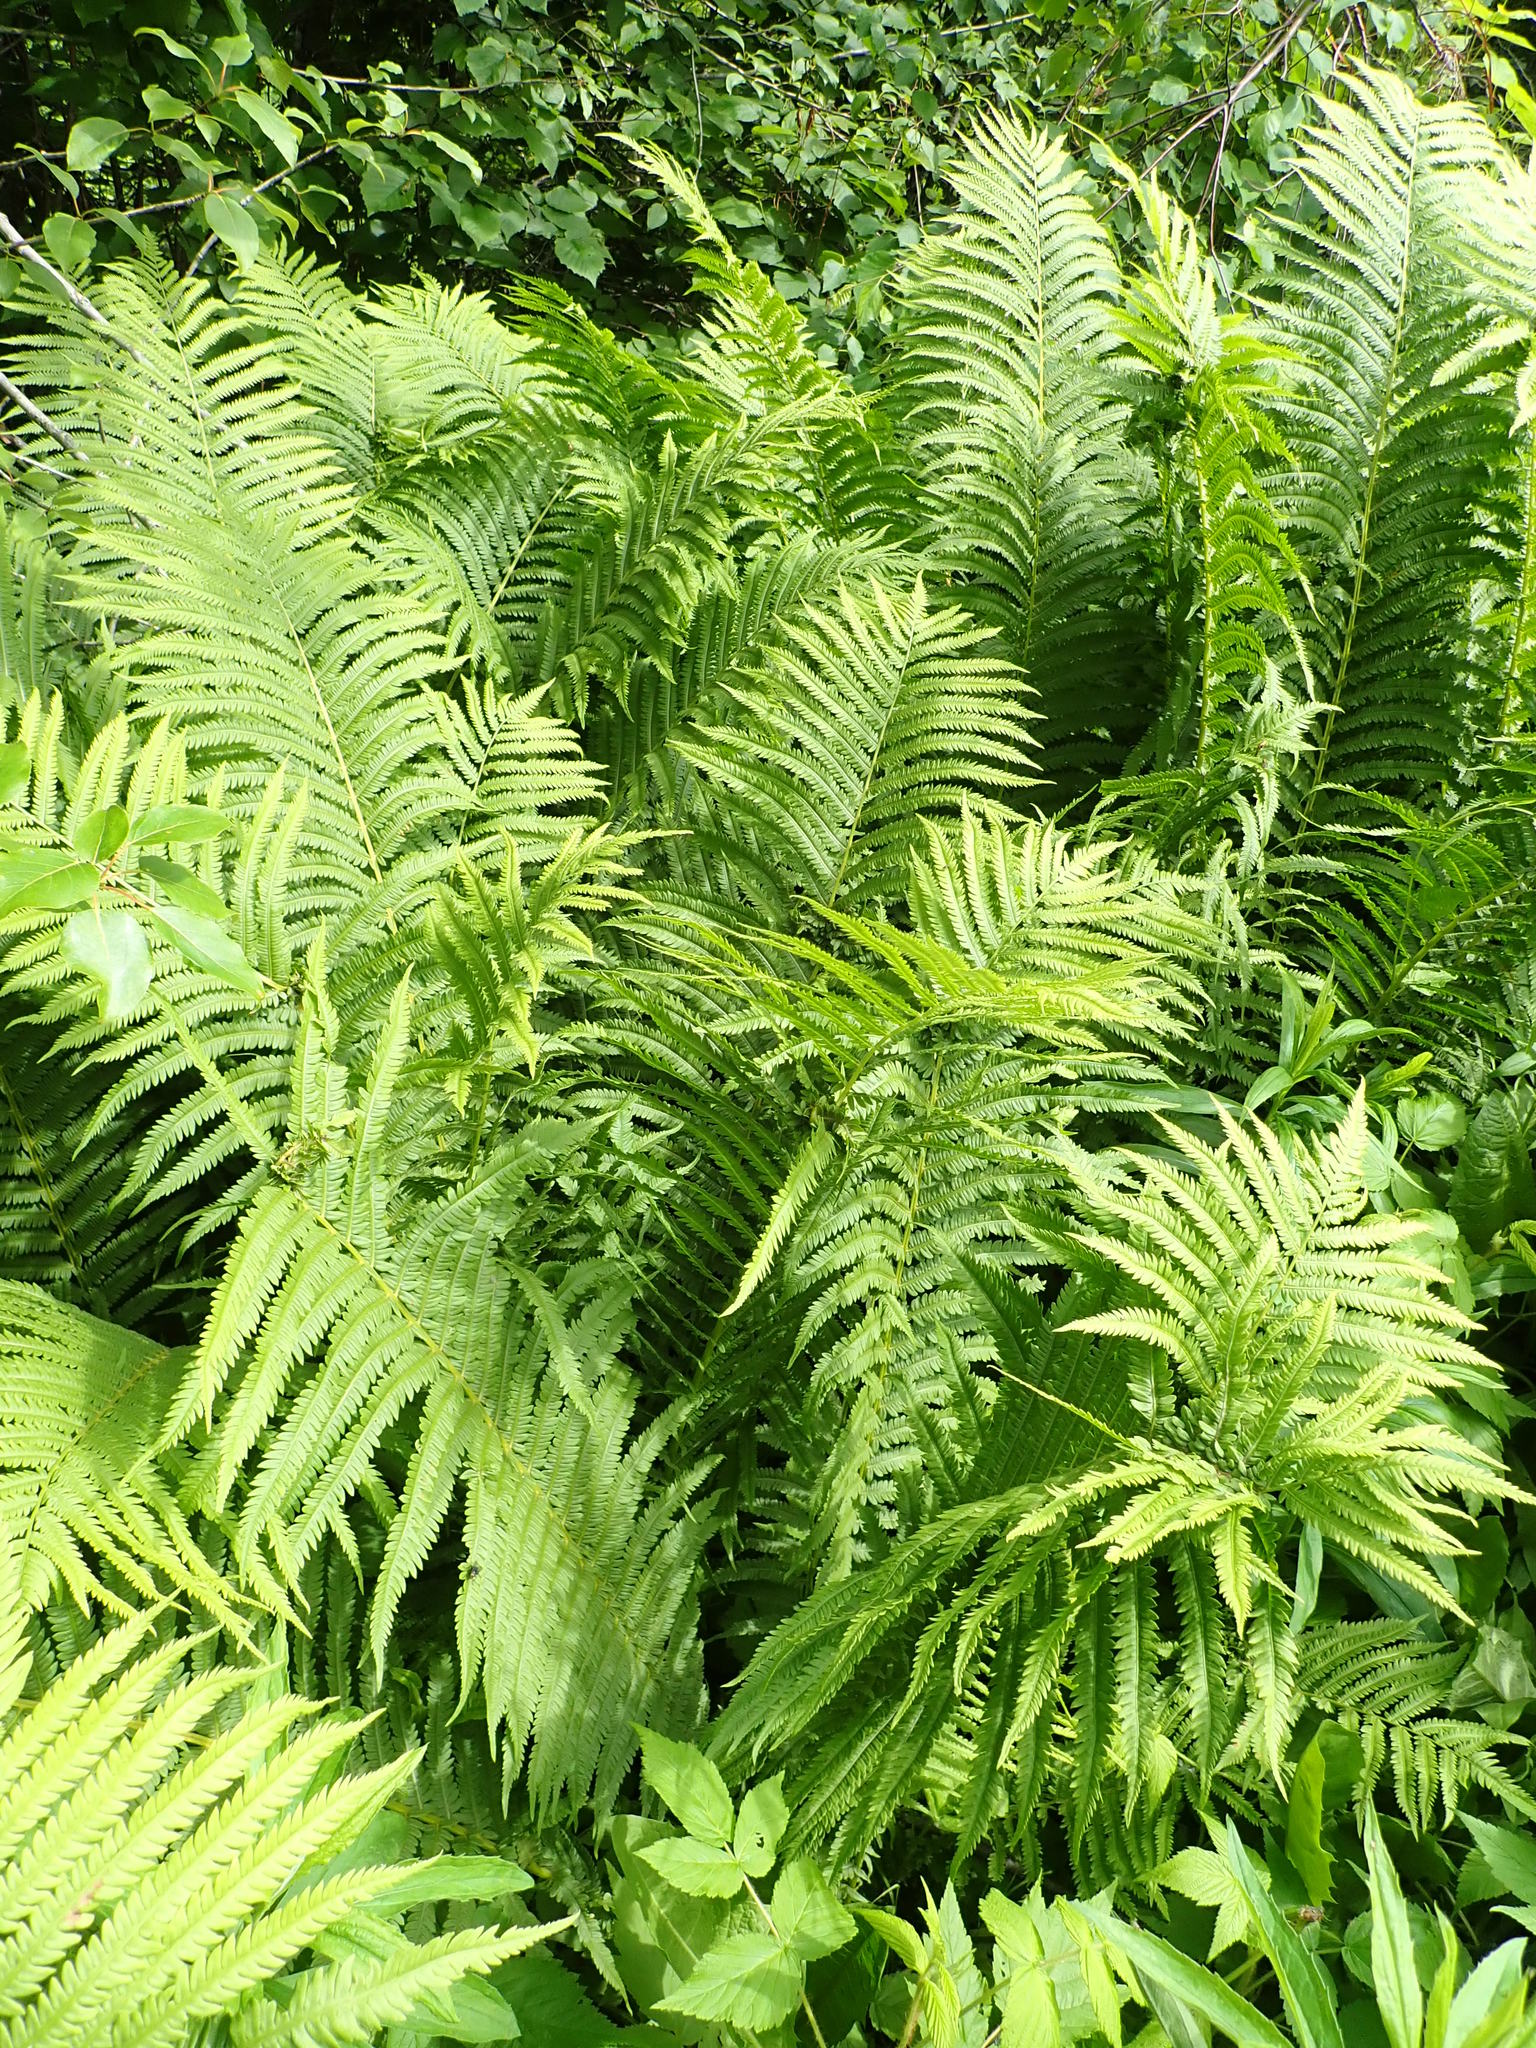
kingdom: Plantae
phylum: Tracheophyta
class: Polypodiopsida
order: Polypodiales
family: Onocleaceae
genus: Matteuccia
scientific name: Matteuccia struthiopteris
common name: Ostrich fern
